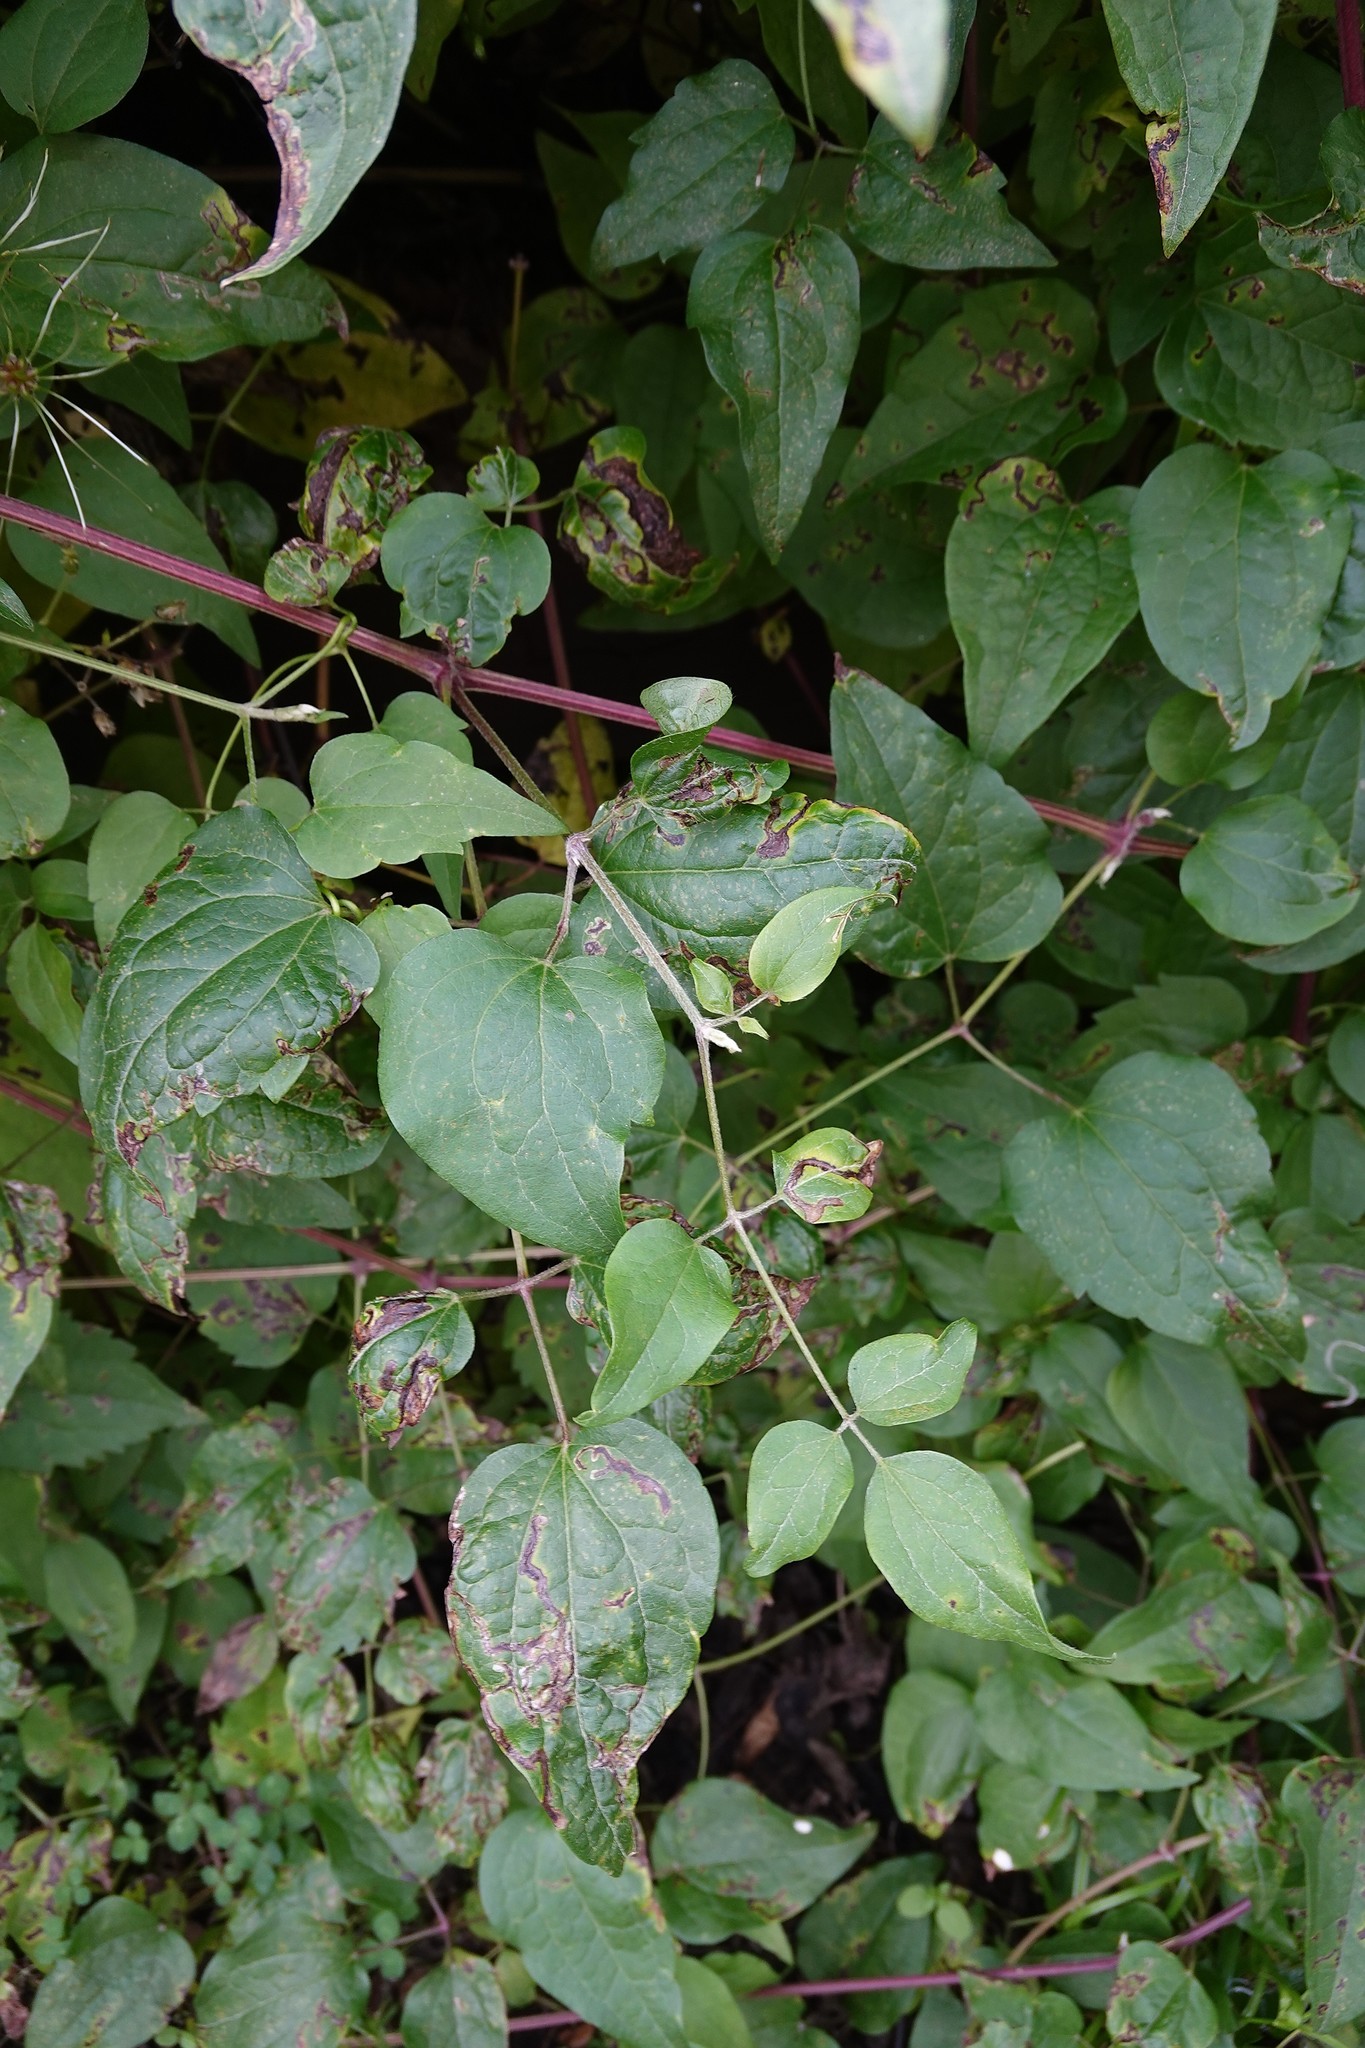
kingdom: Animalia
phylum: Arthropoda
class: Insecta
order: Diptera
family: Agromyzidae
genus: Phytomyza
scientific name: Phytomyza vitalbae
